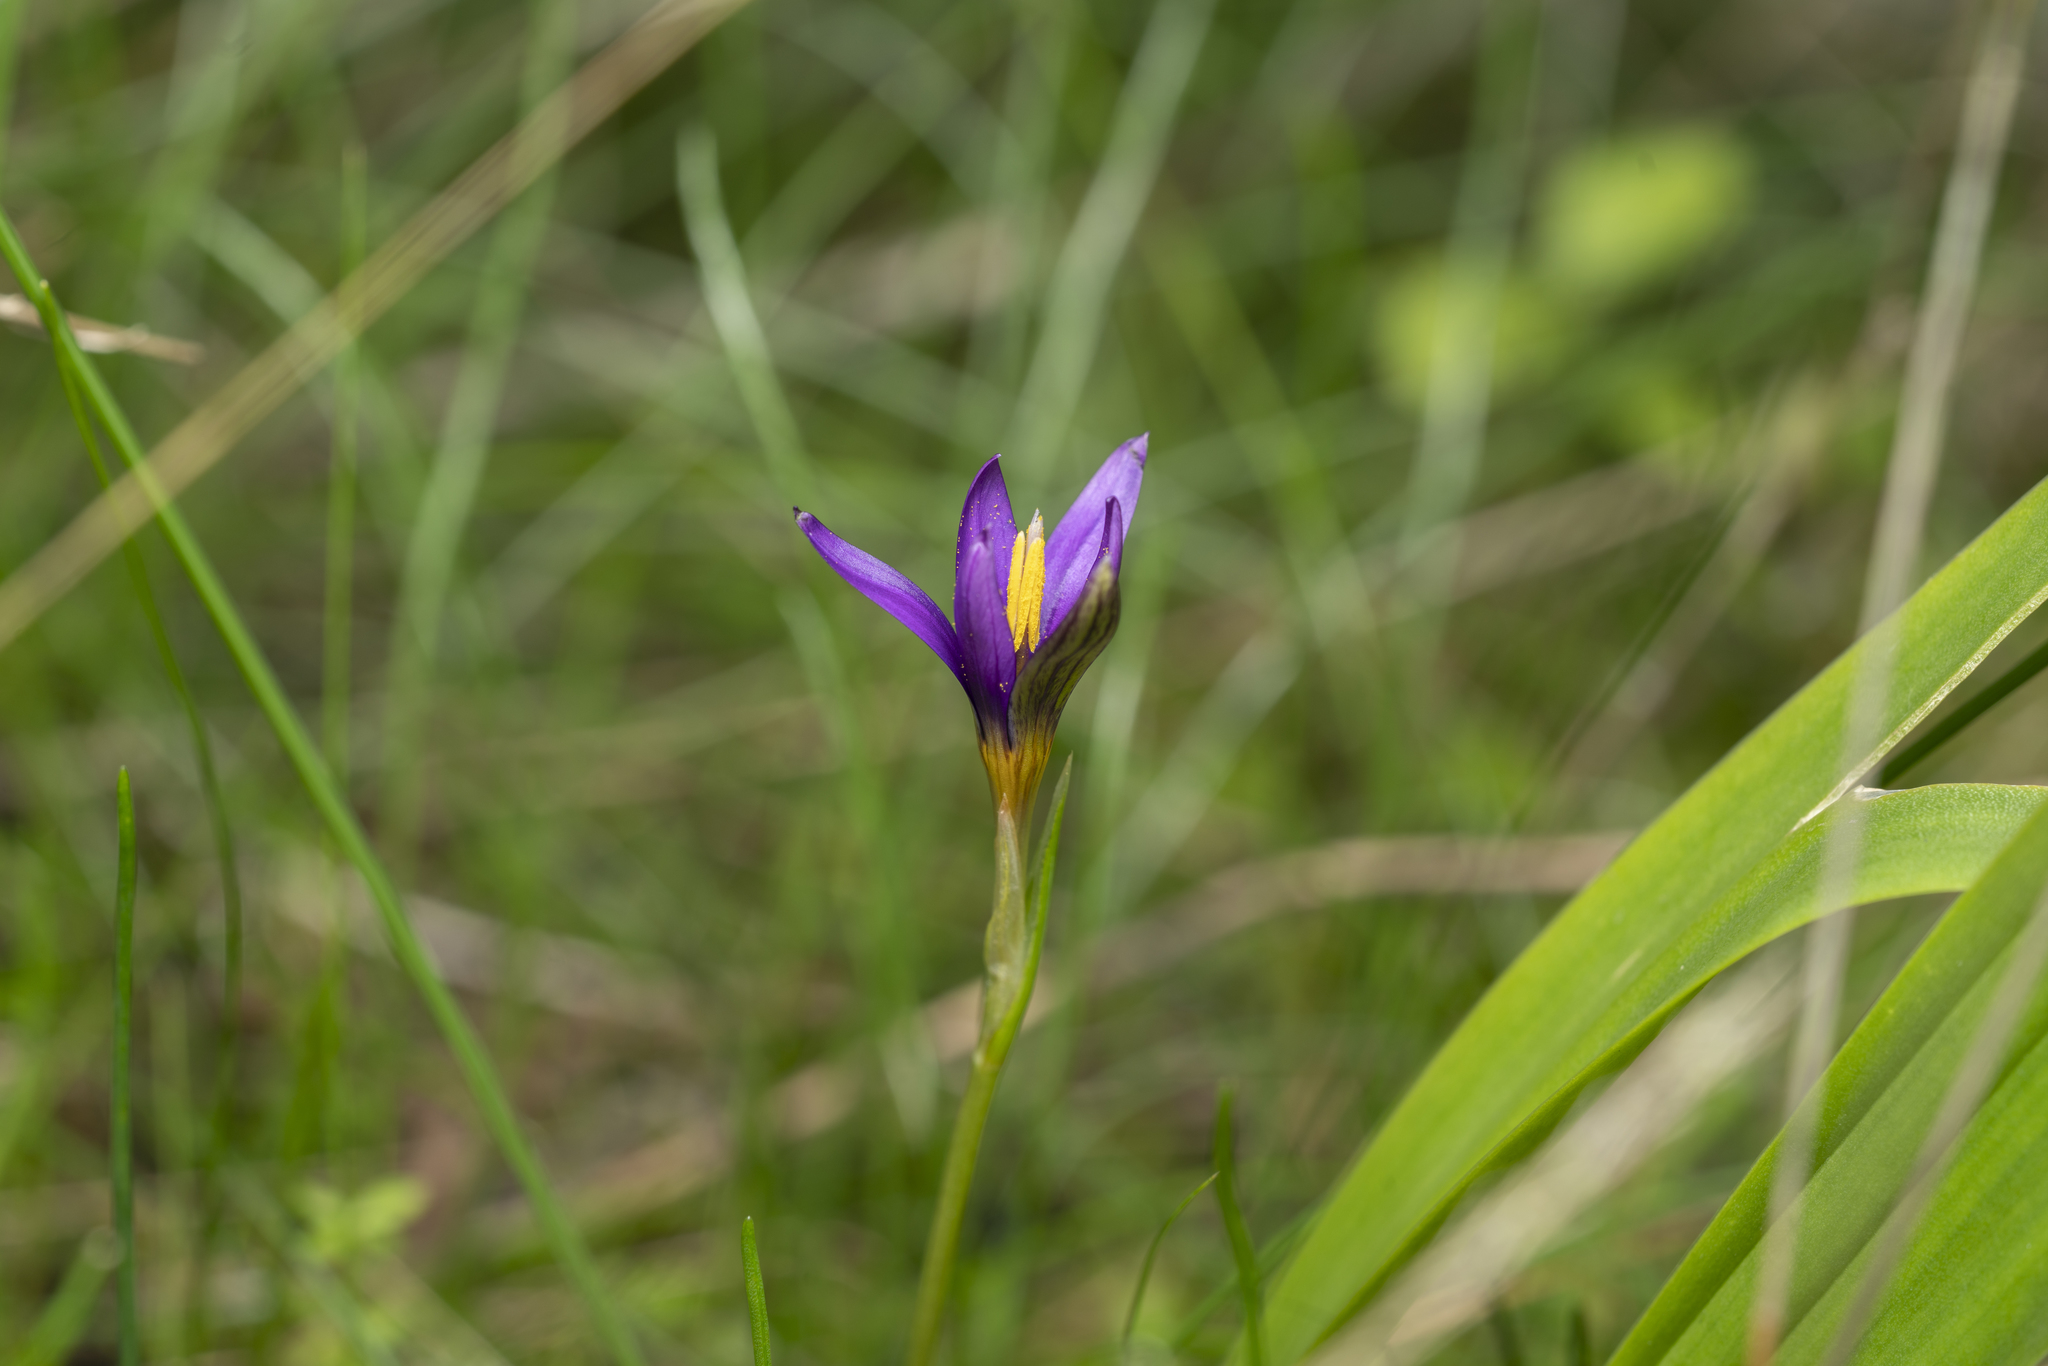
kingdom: Plantae
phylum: Tracheophyta
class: Liliopsida
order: Asparagales
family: Iridaceae
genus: Romulea
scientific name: Romulea tempskyana
